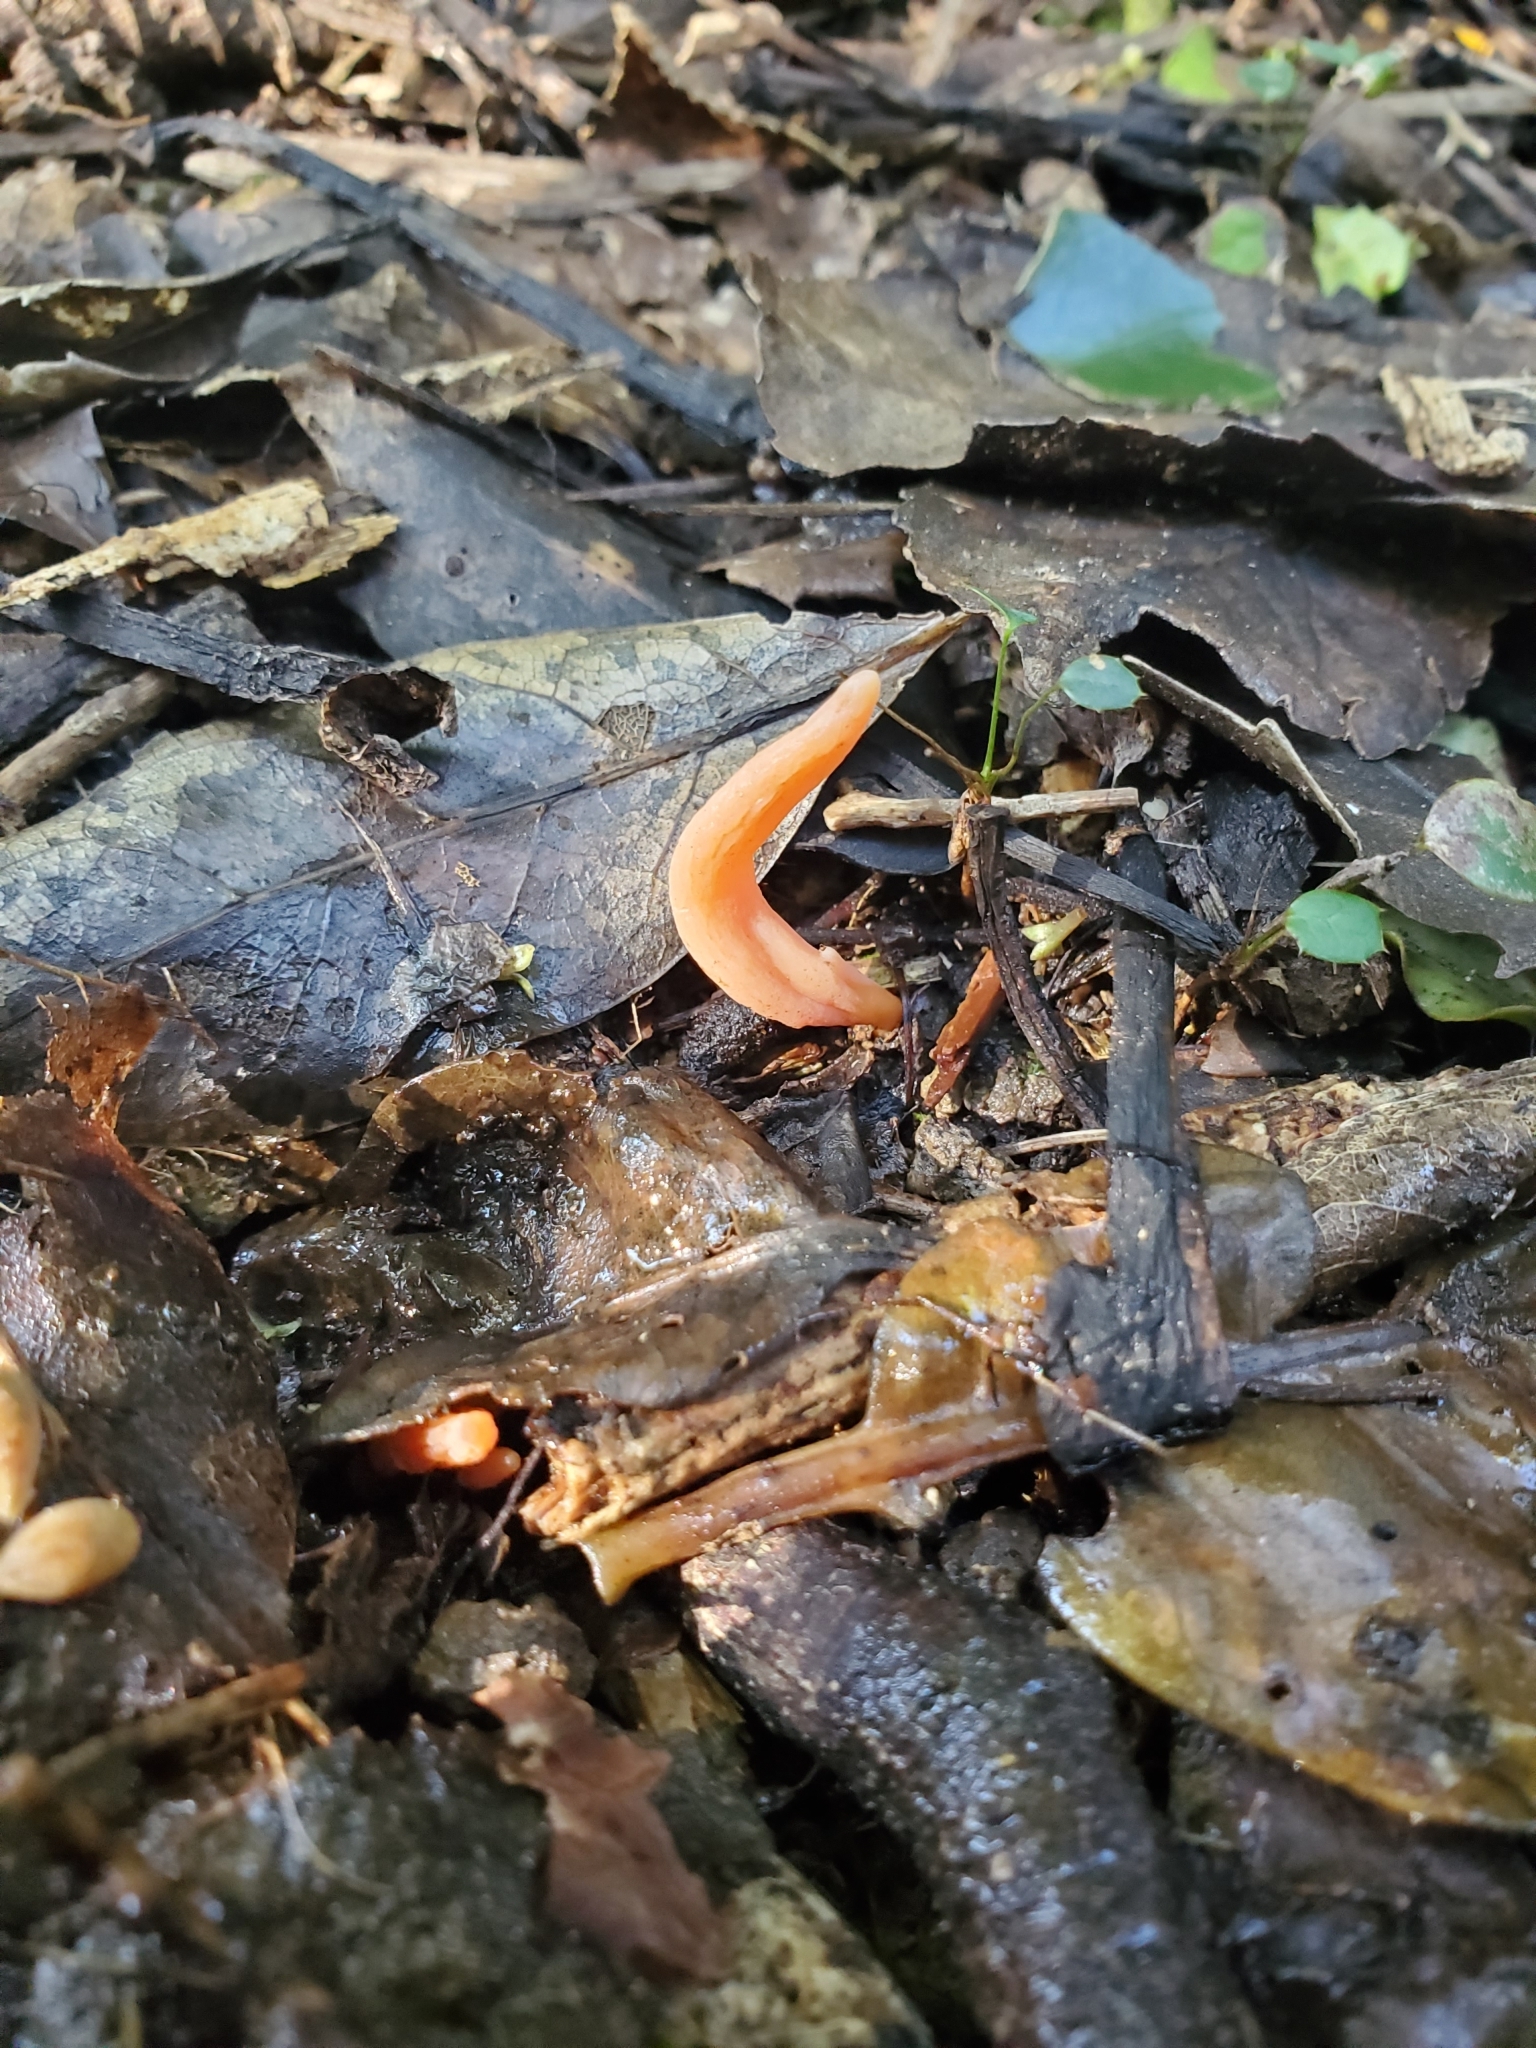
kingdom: Fungi
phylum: Basidiomycota
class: Agaricomycetes
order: Agaricales
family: Clavariaceae
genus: Clavulinopsis
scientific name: Clavulinopsis sulcata
